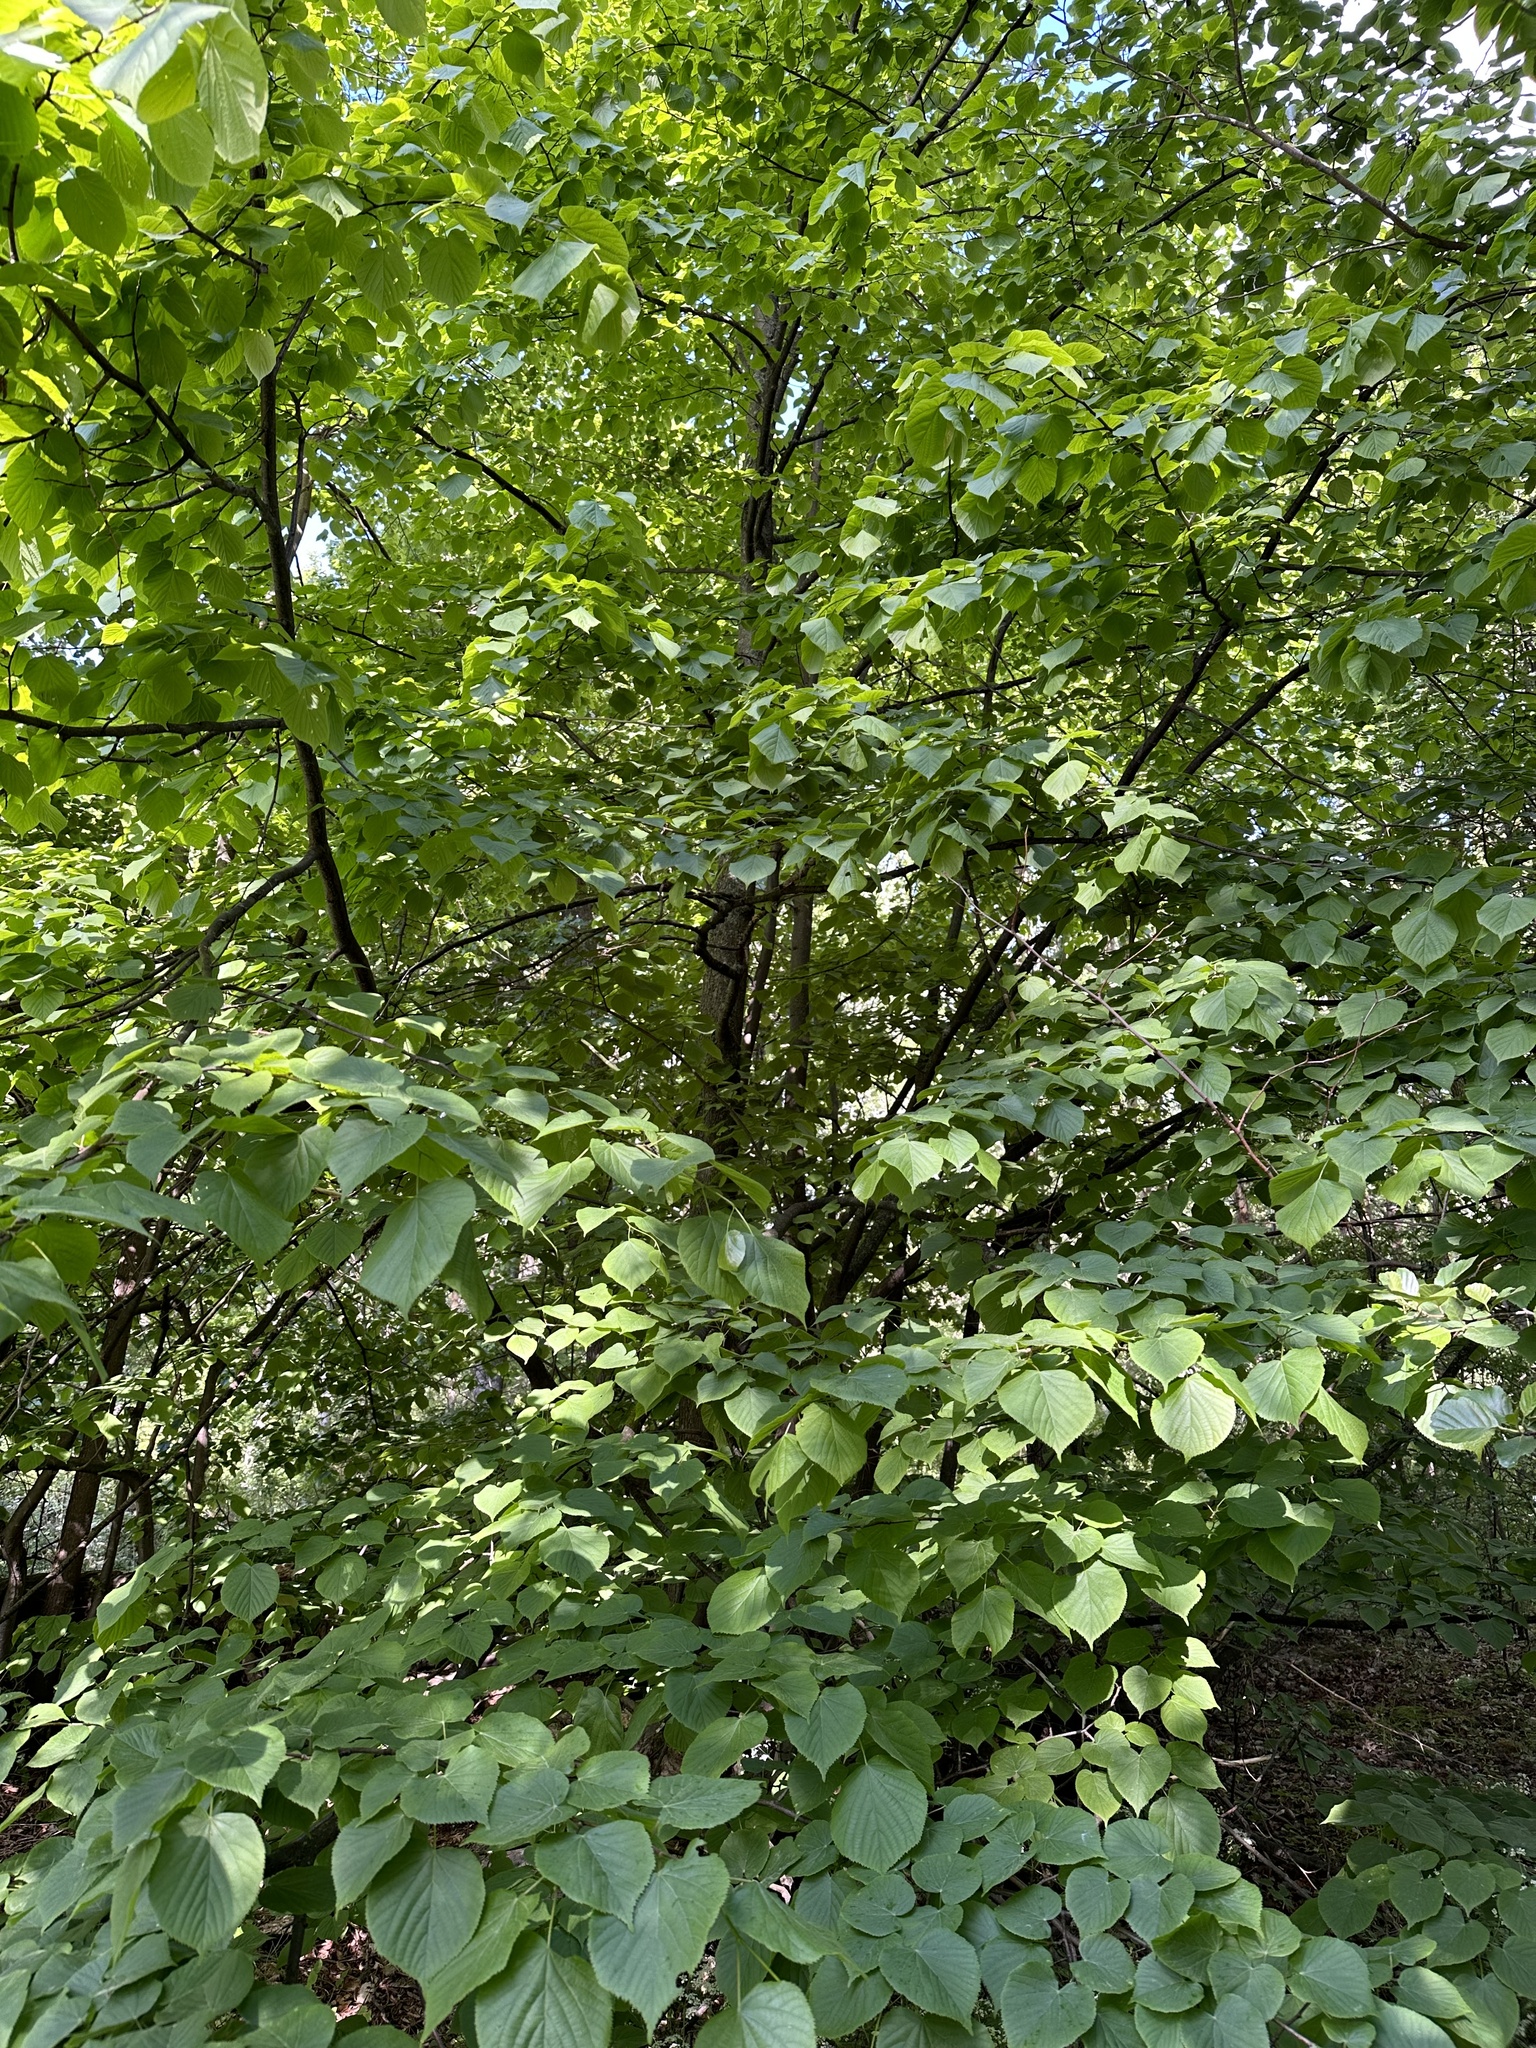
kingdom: Plantae
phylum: Tracheophyta
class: Magnoliopsida
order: Malvales
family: Malvaceae
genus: Tilia
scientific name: Tilia cordata
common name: Small-leaved lime
